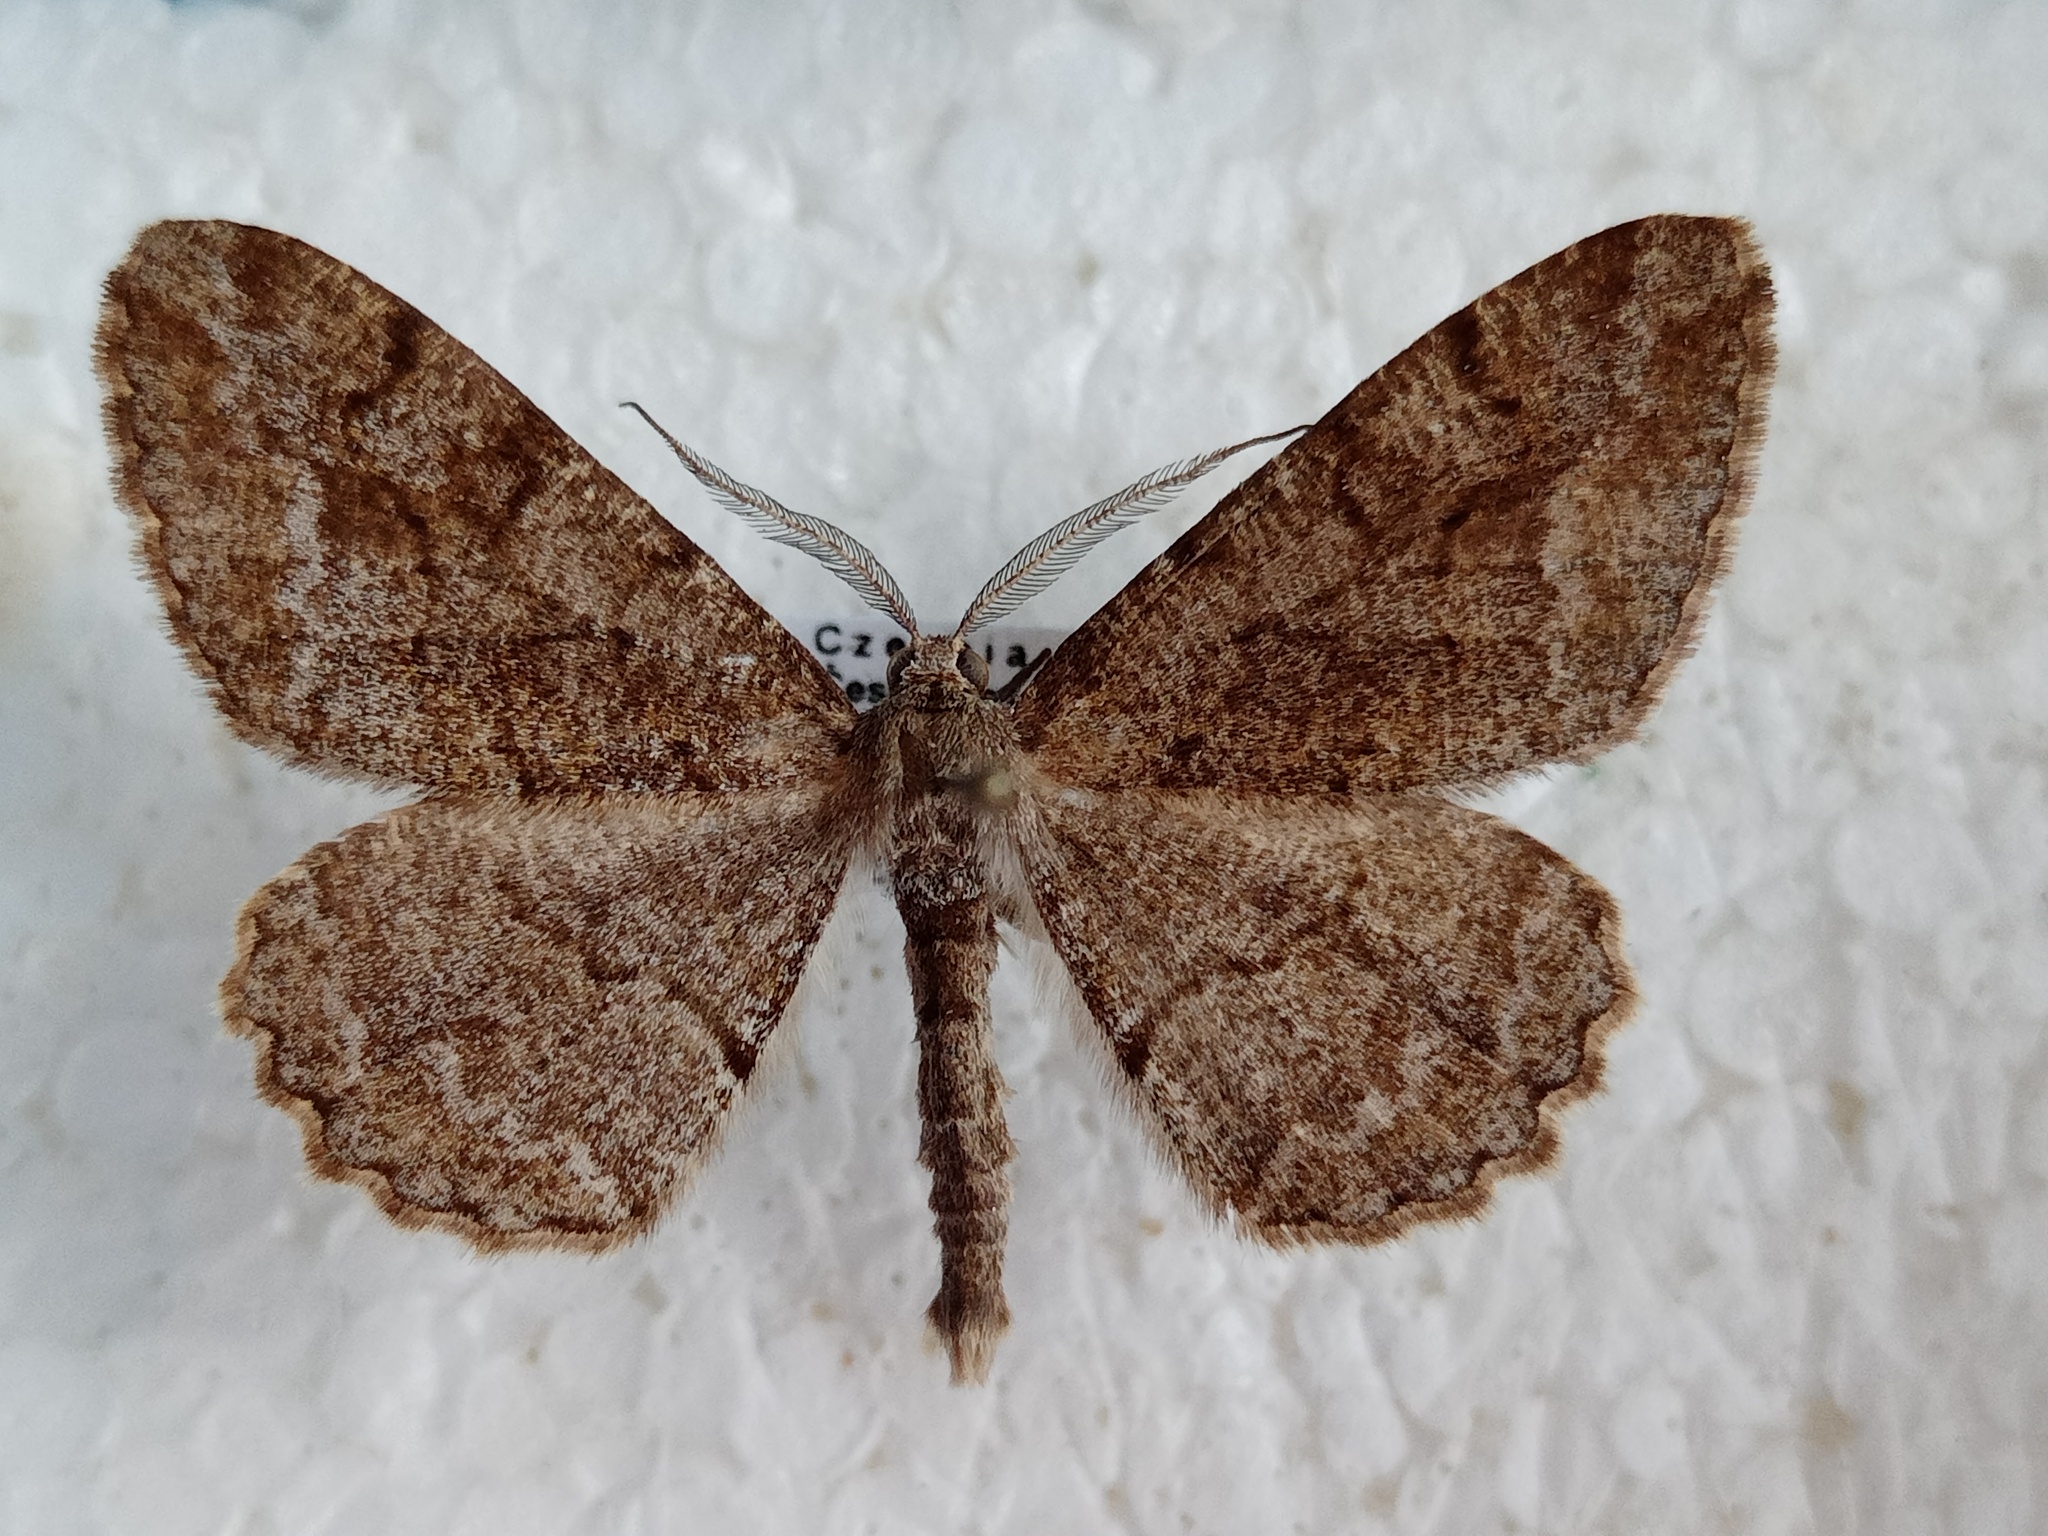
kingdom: Animalia
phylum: Arthropoda
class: Insecta
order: Lepidoptera
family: Geometridae
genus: Alcis
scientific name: Alcis repandata
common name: Mottled beauty
